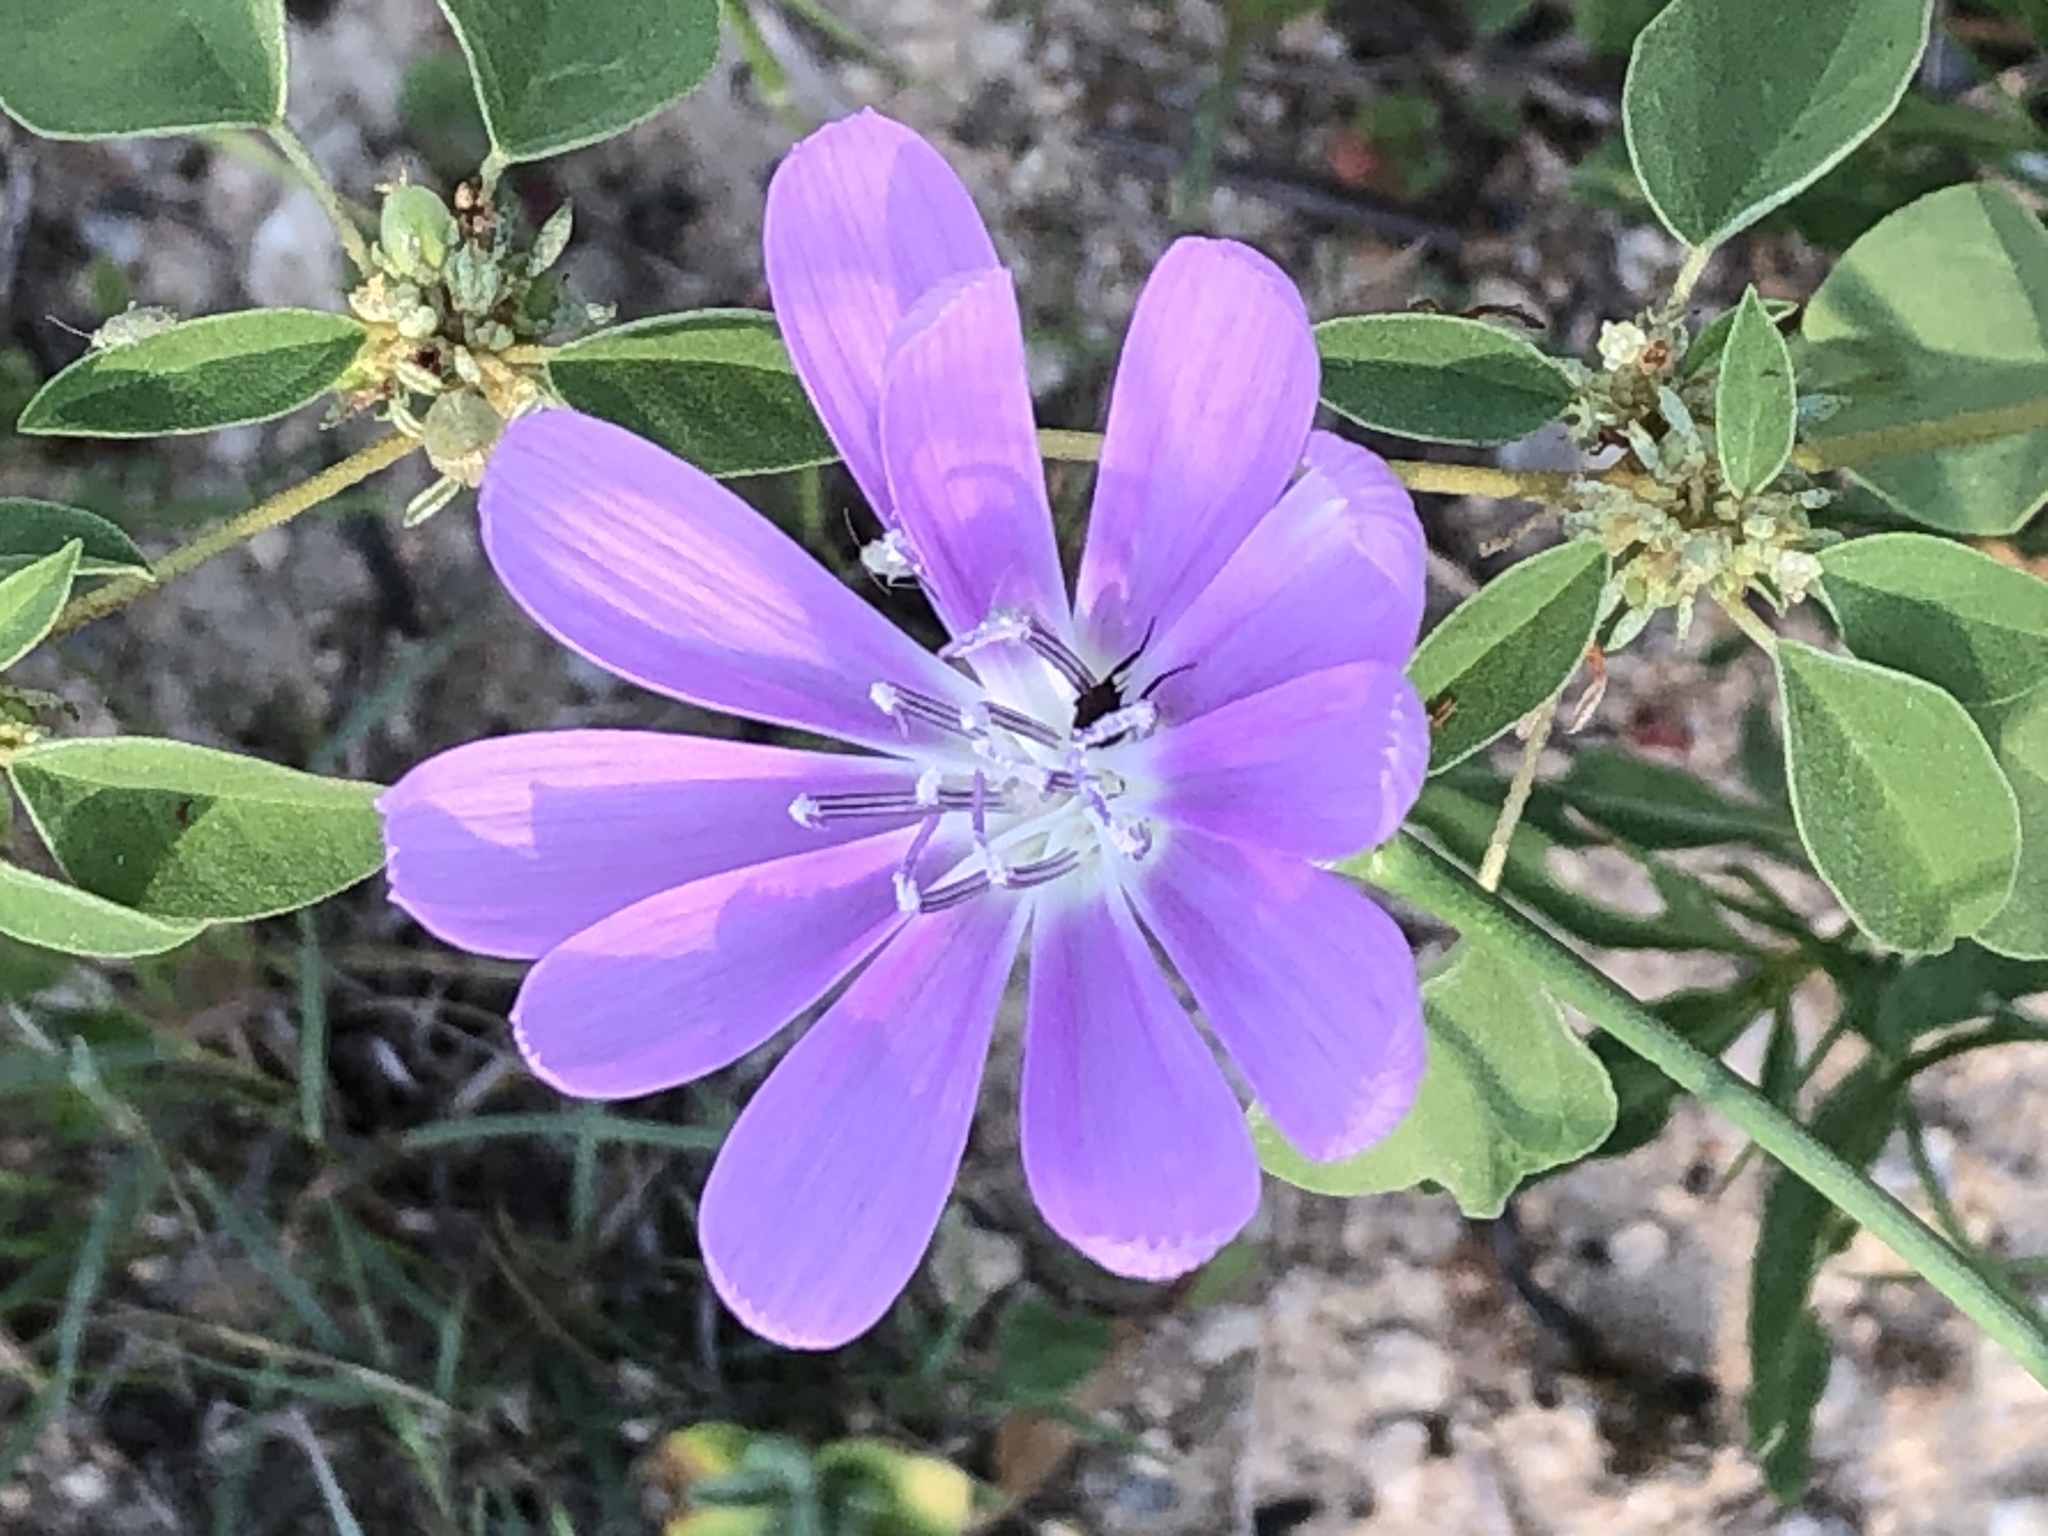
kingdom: Plantae
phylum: Tracheophyta
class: Magnoliopsida
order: Asterales
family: Asteraceae
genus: Lygodesmia
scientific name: Lygodesmia texana
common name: Texas skeleton-plant
